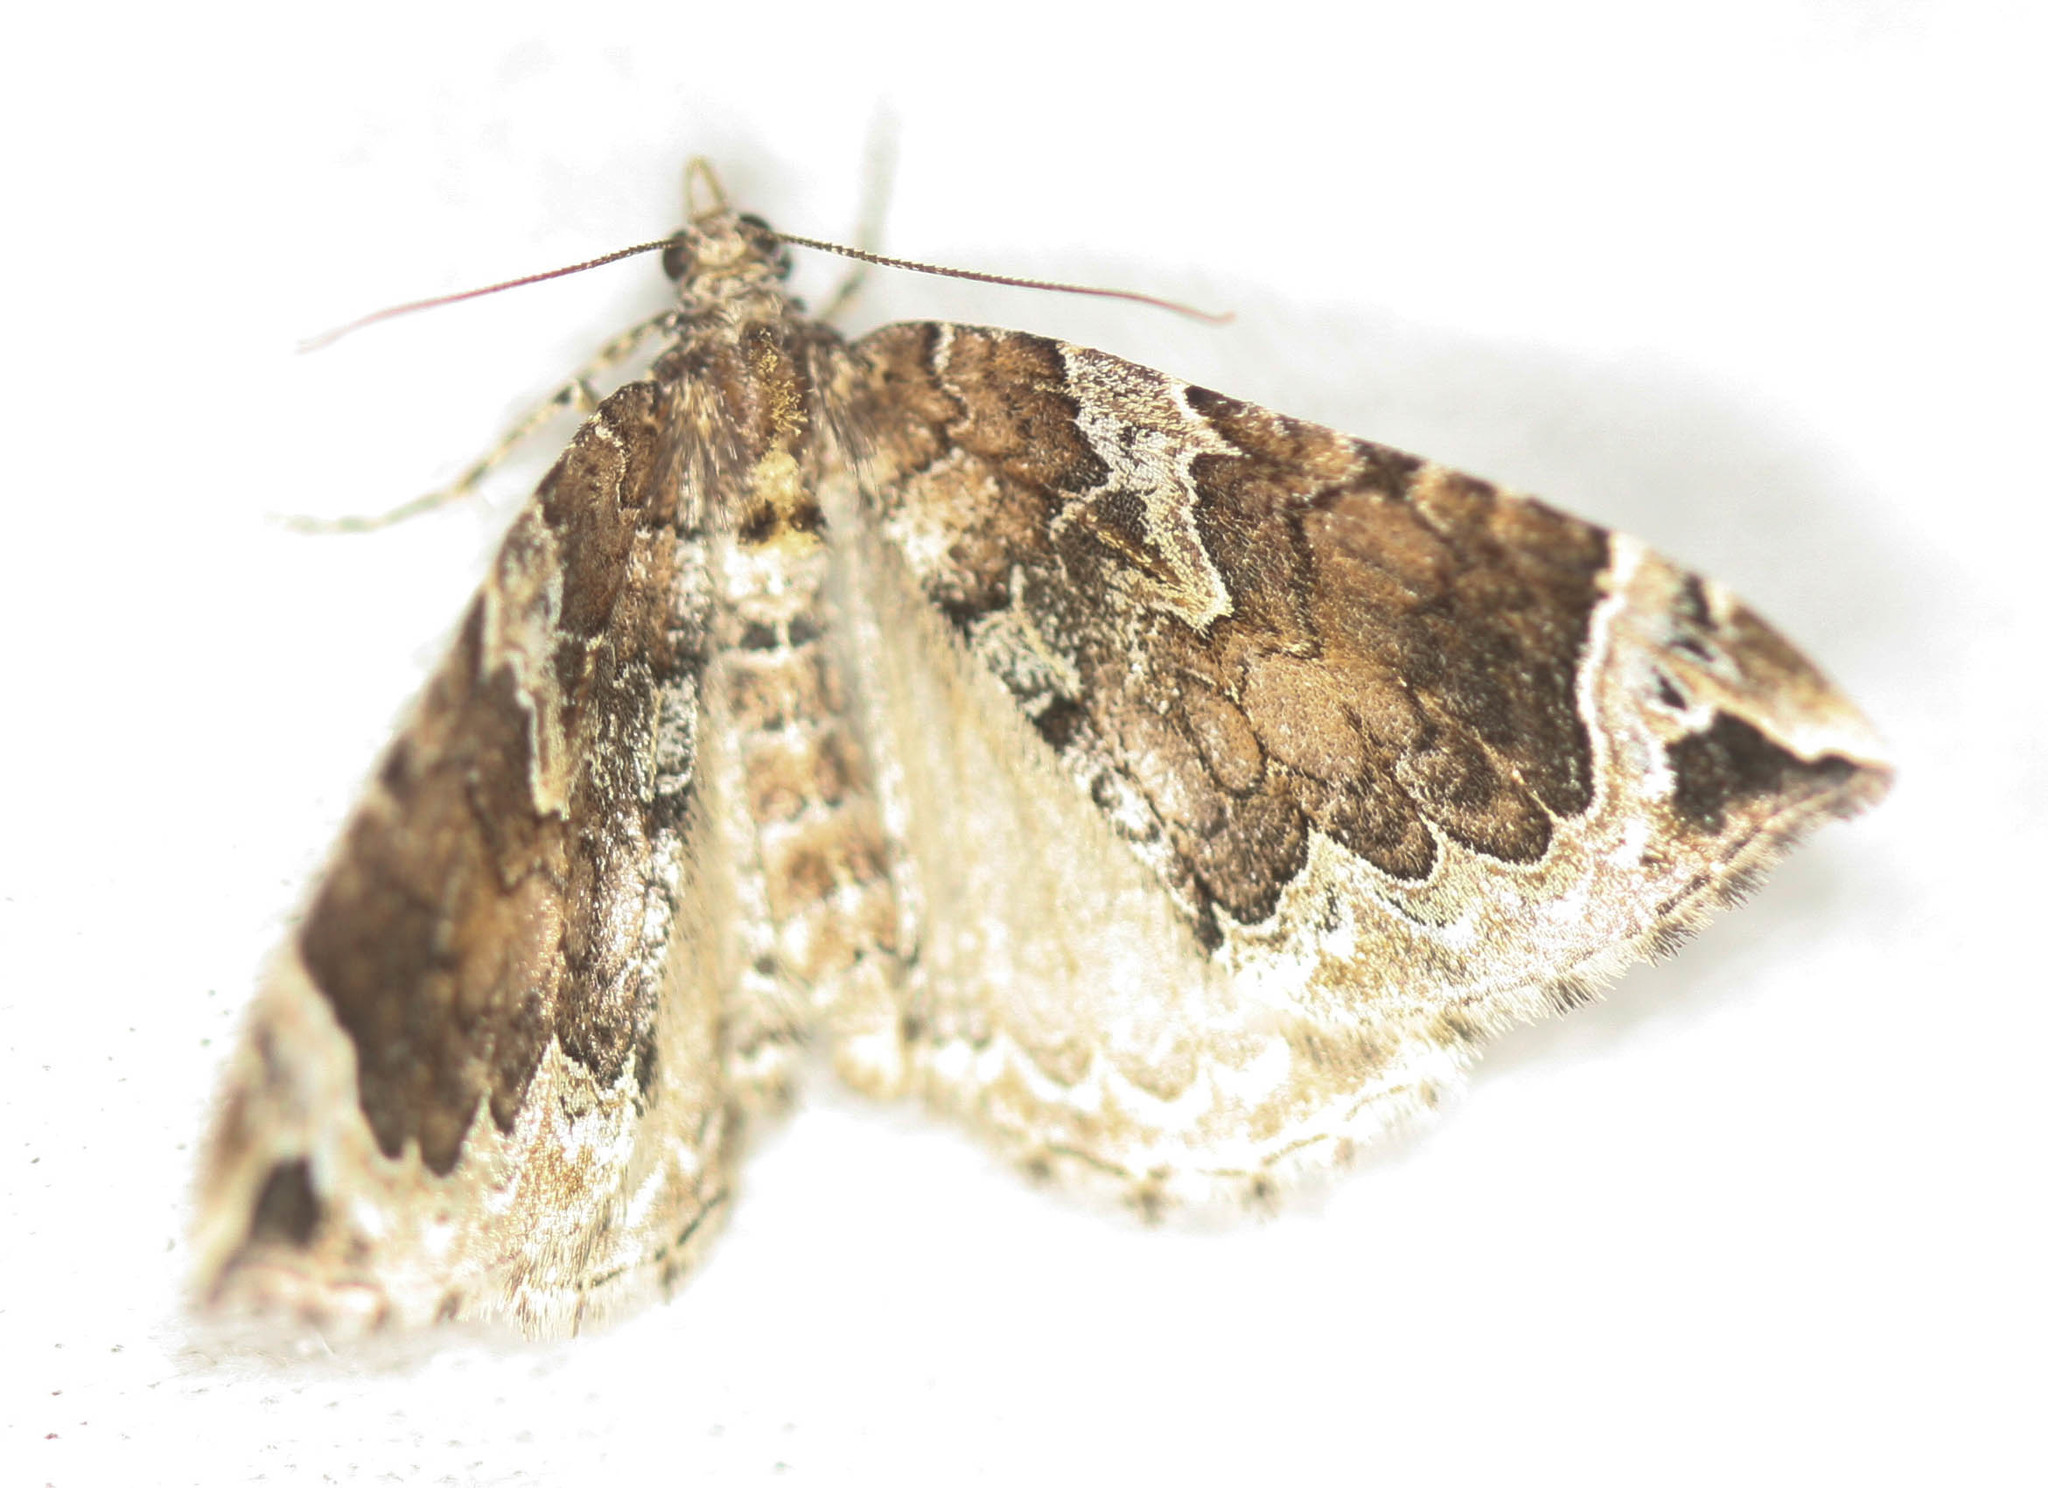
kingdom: Animalia
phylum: Arthropoda
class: Insecta
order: Lepidoptera
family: Geometridae
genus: Eulithis
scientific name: Eulithis xylina
